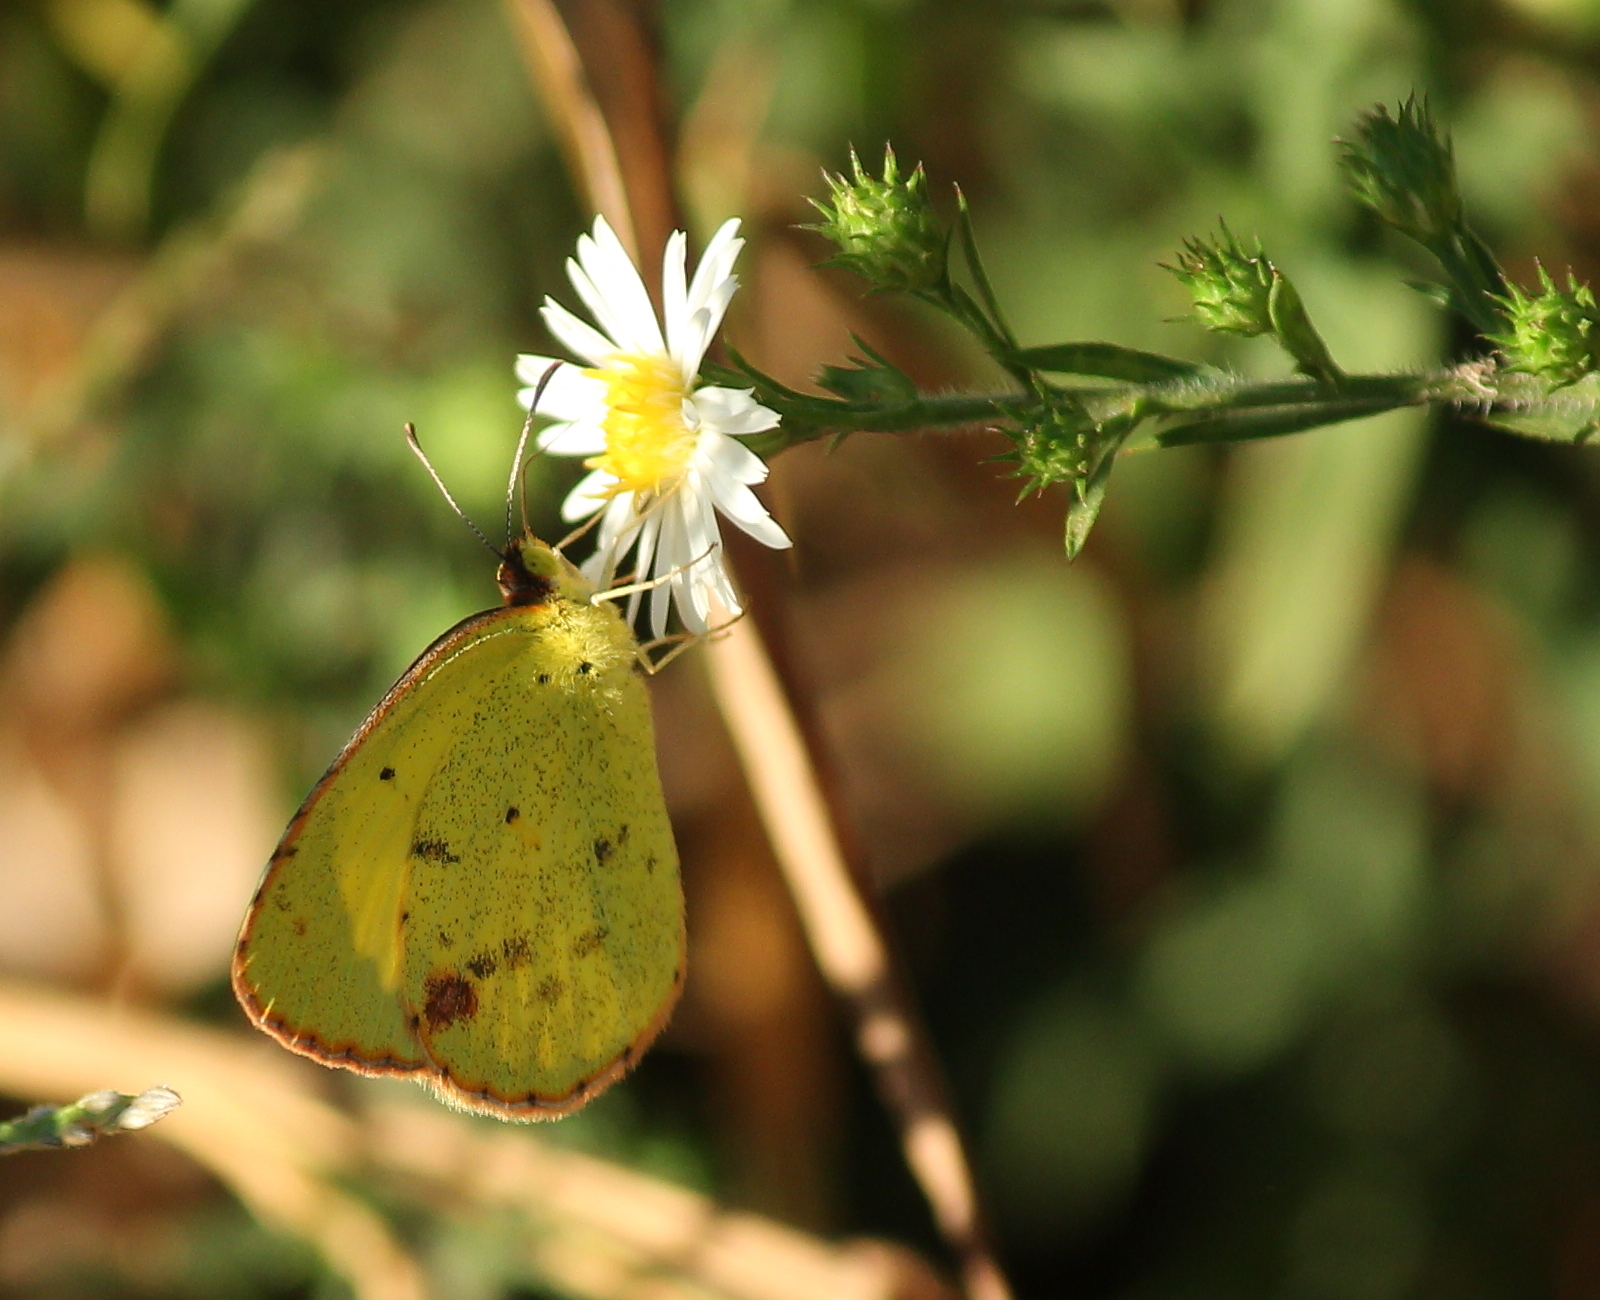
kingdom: Animalia
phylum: Arthropoda
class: Insecta
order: Lepidoptera
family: Pieridae
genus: Pyrisitia
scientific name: Pyrisitia lisa
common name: Little yellow
